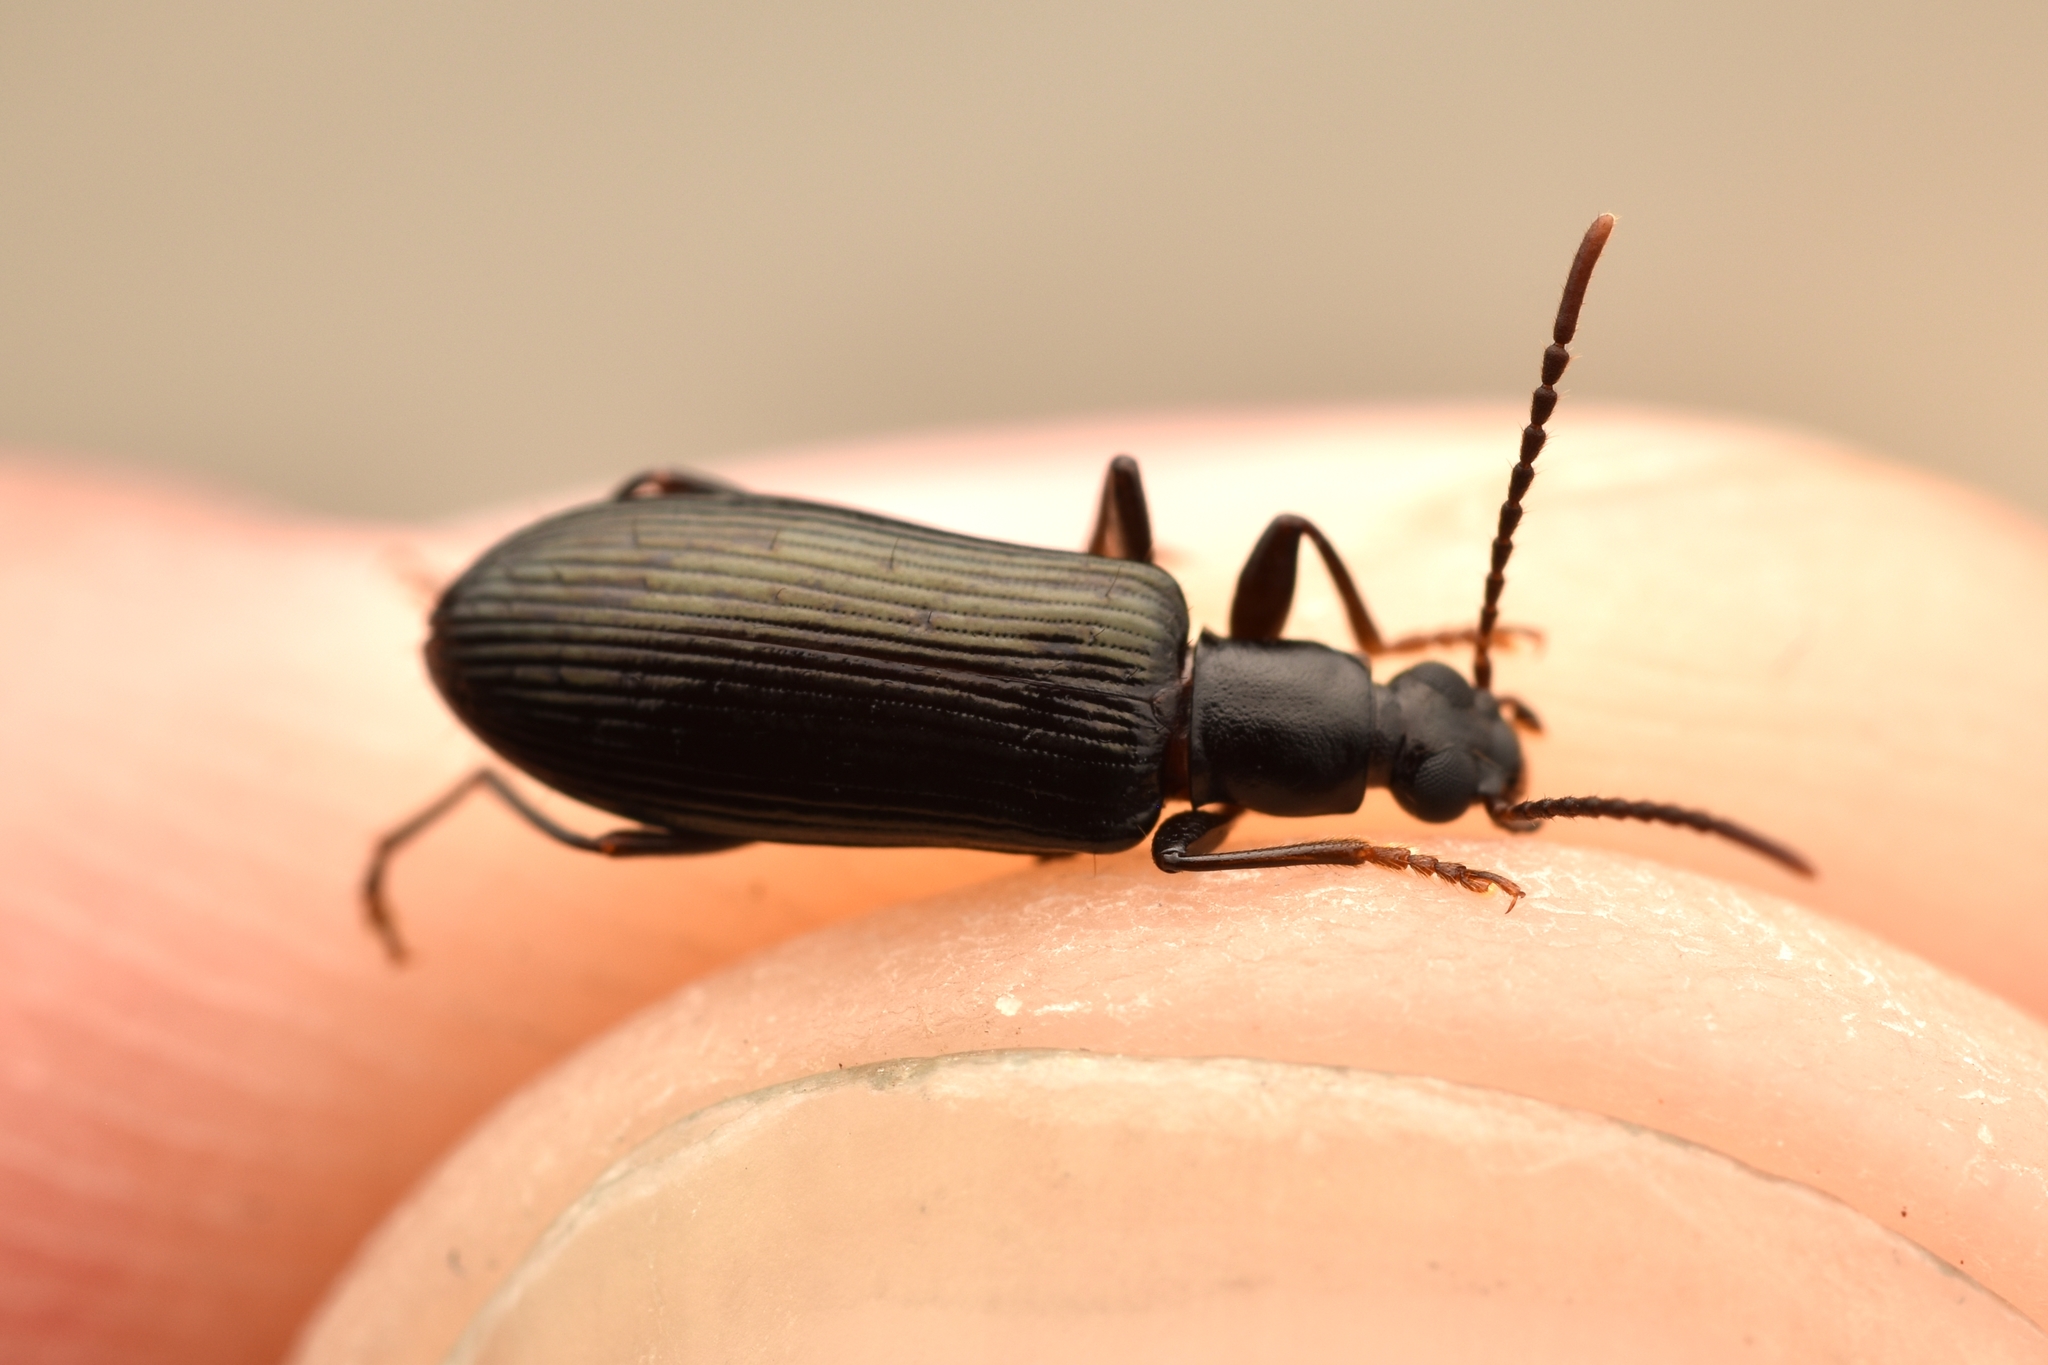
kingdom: Animalia
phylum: Arthropoda
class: Insecta
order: Coleoptera
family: Tenebrionidae
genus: Statira
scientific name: Statira erina
